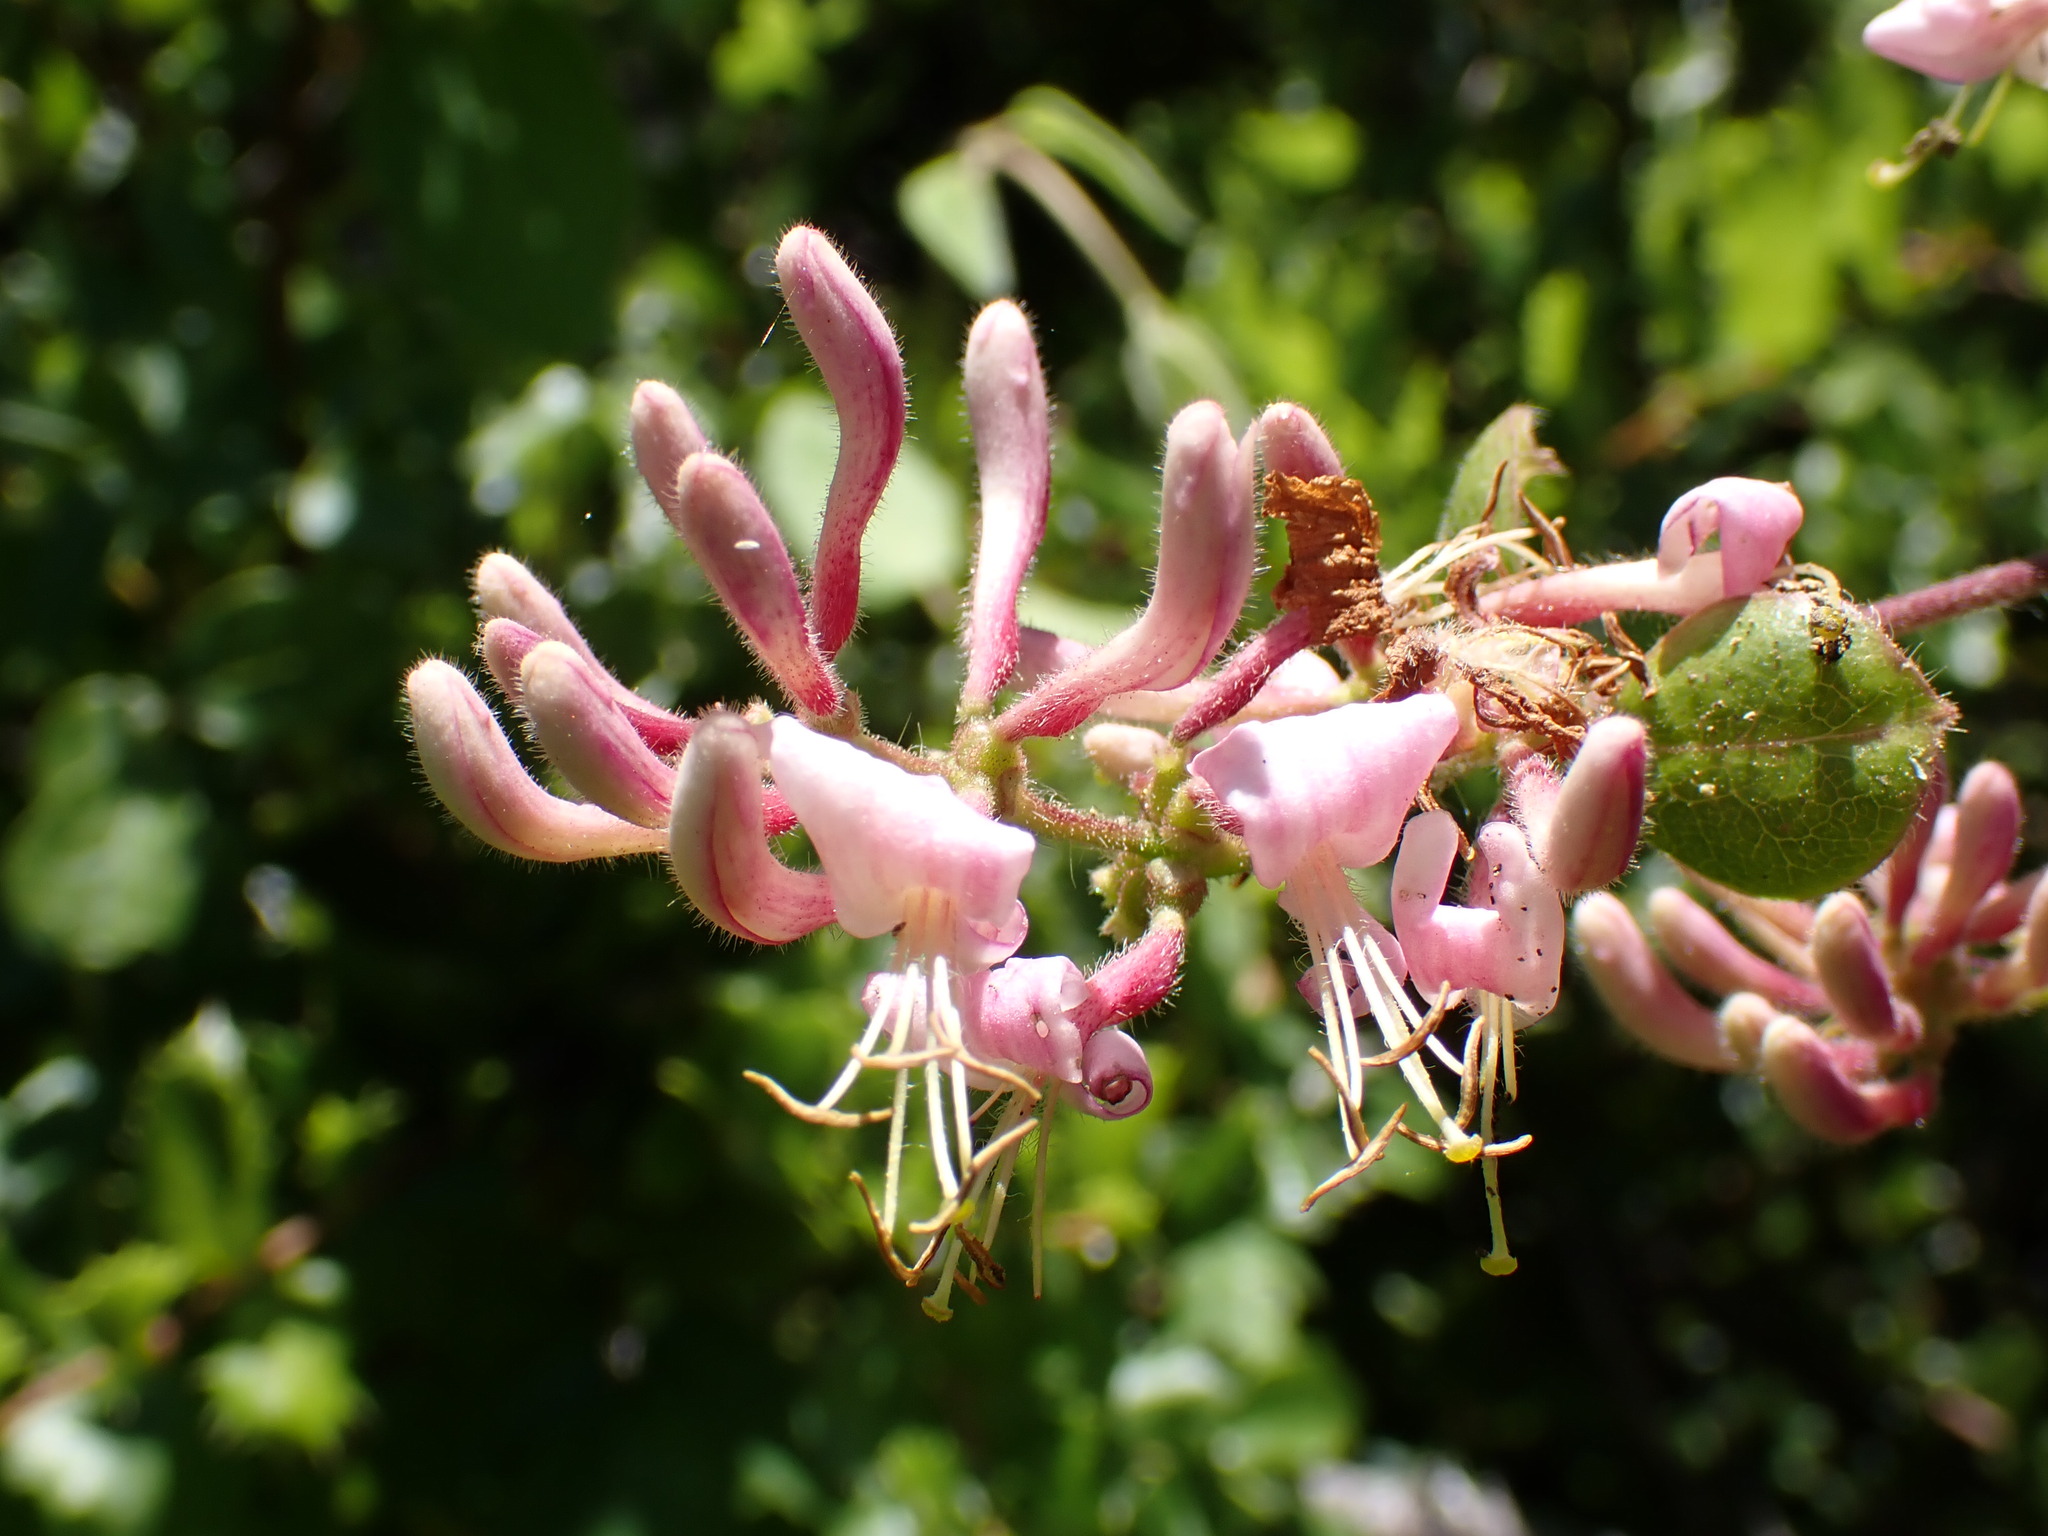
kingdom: Plantae
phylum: Tracheophyta
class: Magnoliopsida
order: Dipsacales
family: Caprifoliaceae
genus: Lonicera
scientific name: Lonicera hispidula
